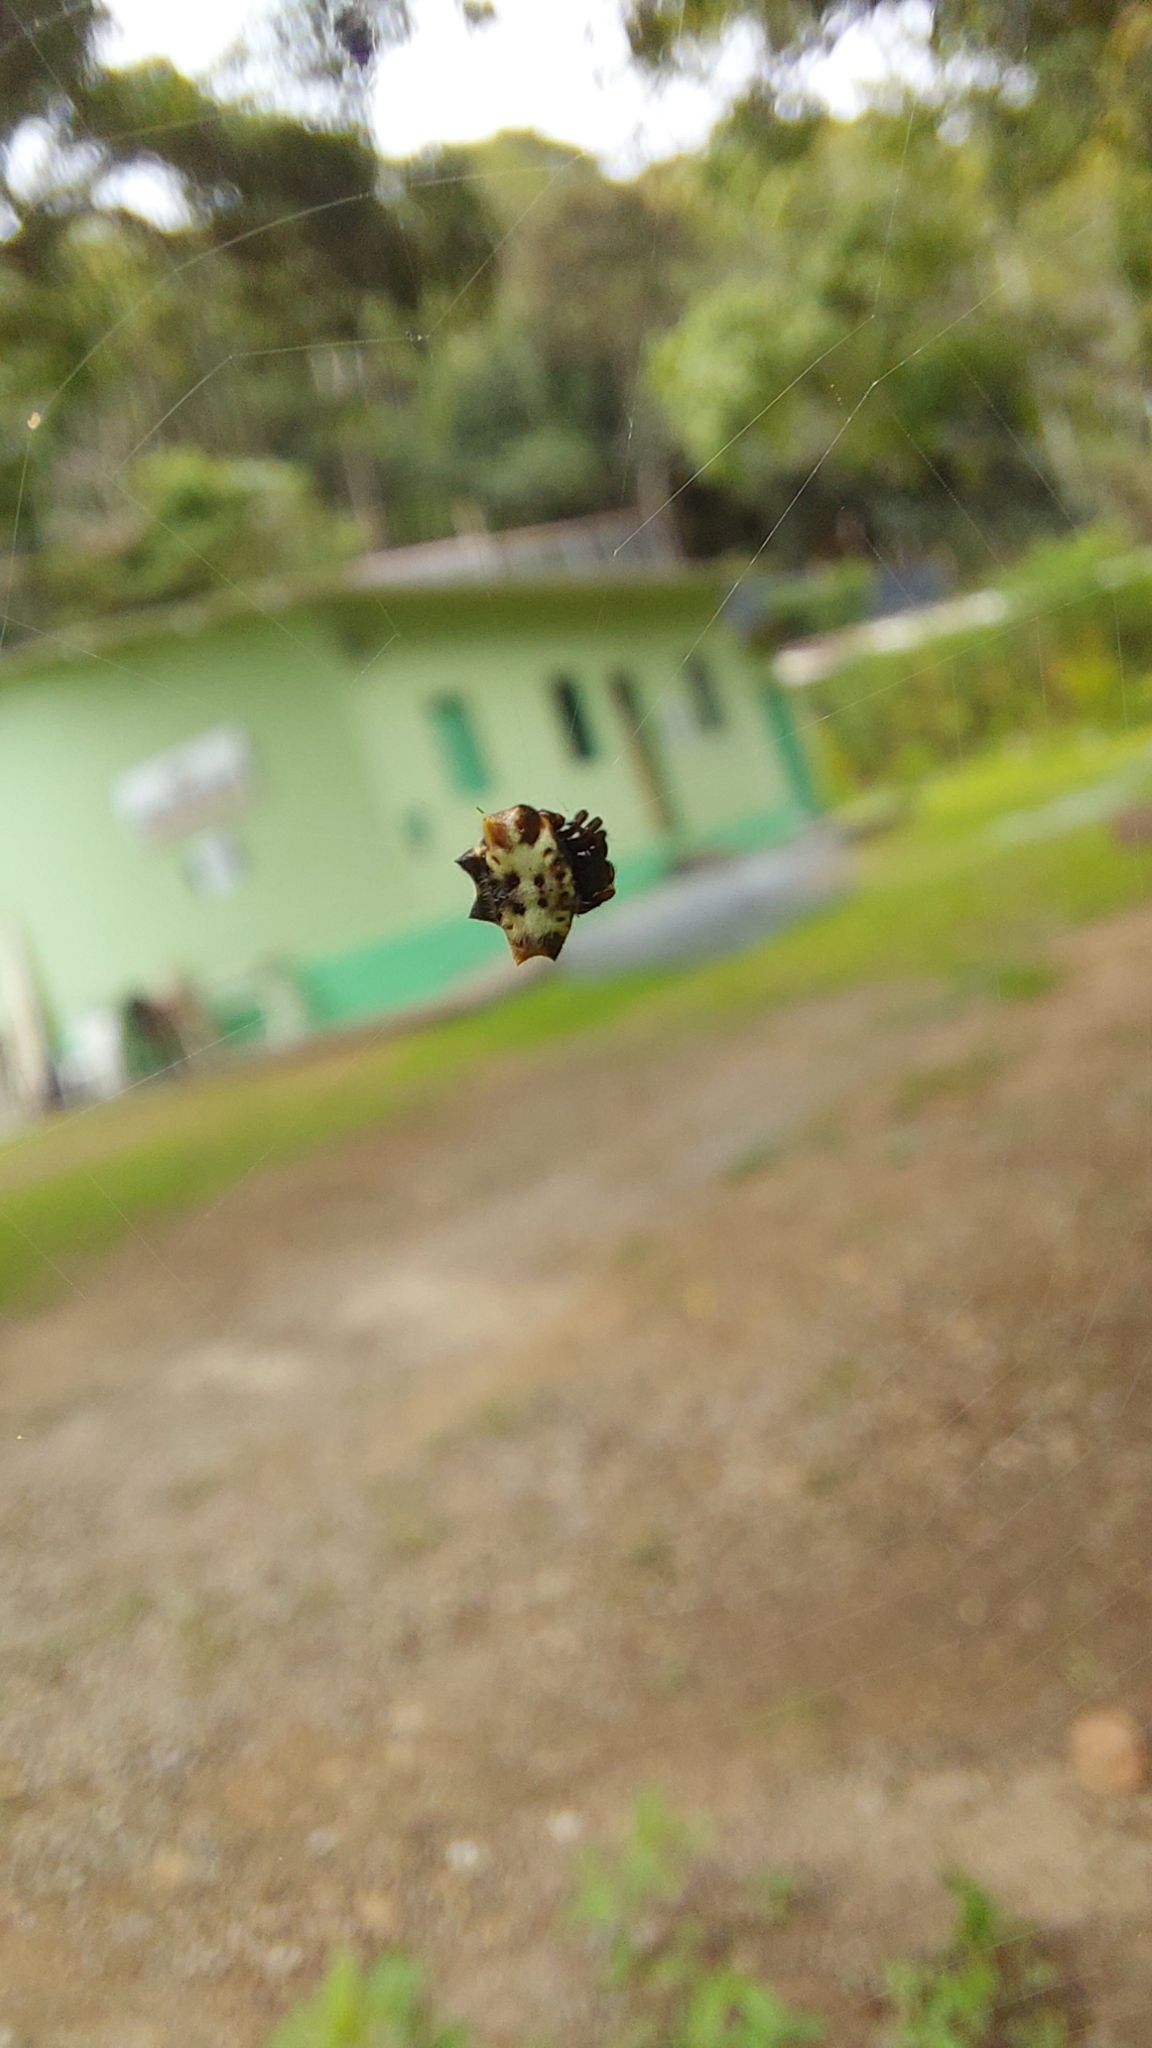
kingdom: Animalia
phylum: Arthropoda
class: Arachnida
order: Araneae
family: Araneidae
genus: Gasteracantha
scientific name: Gasteracantha cancriformis
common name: Orb weavers
